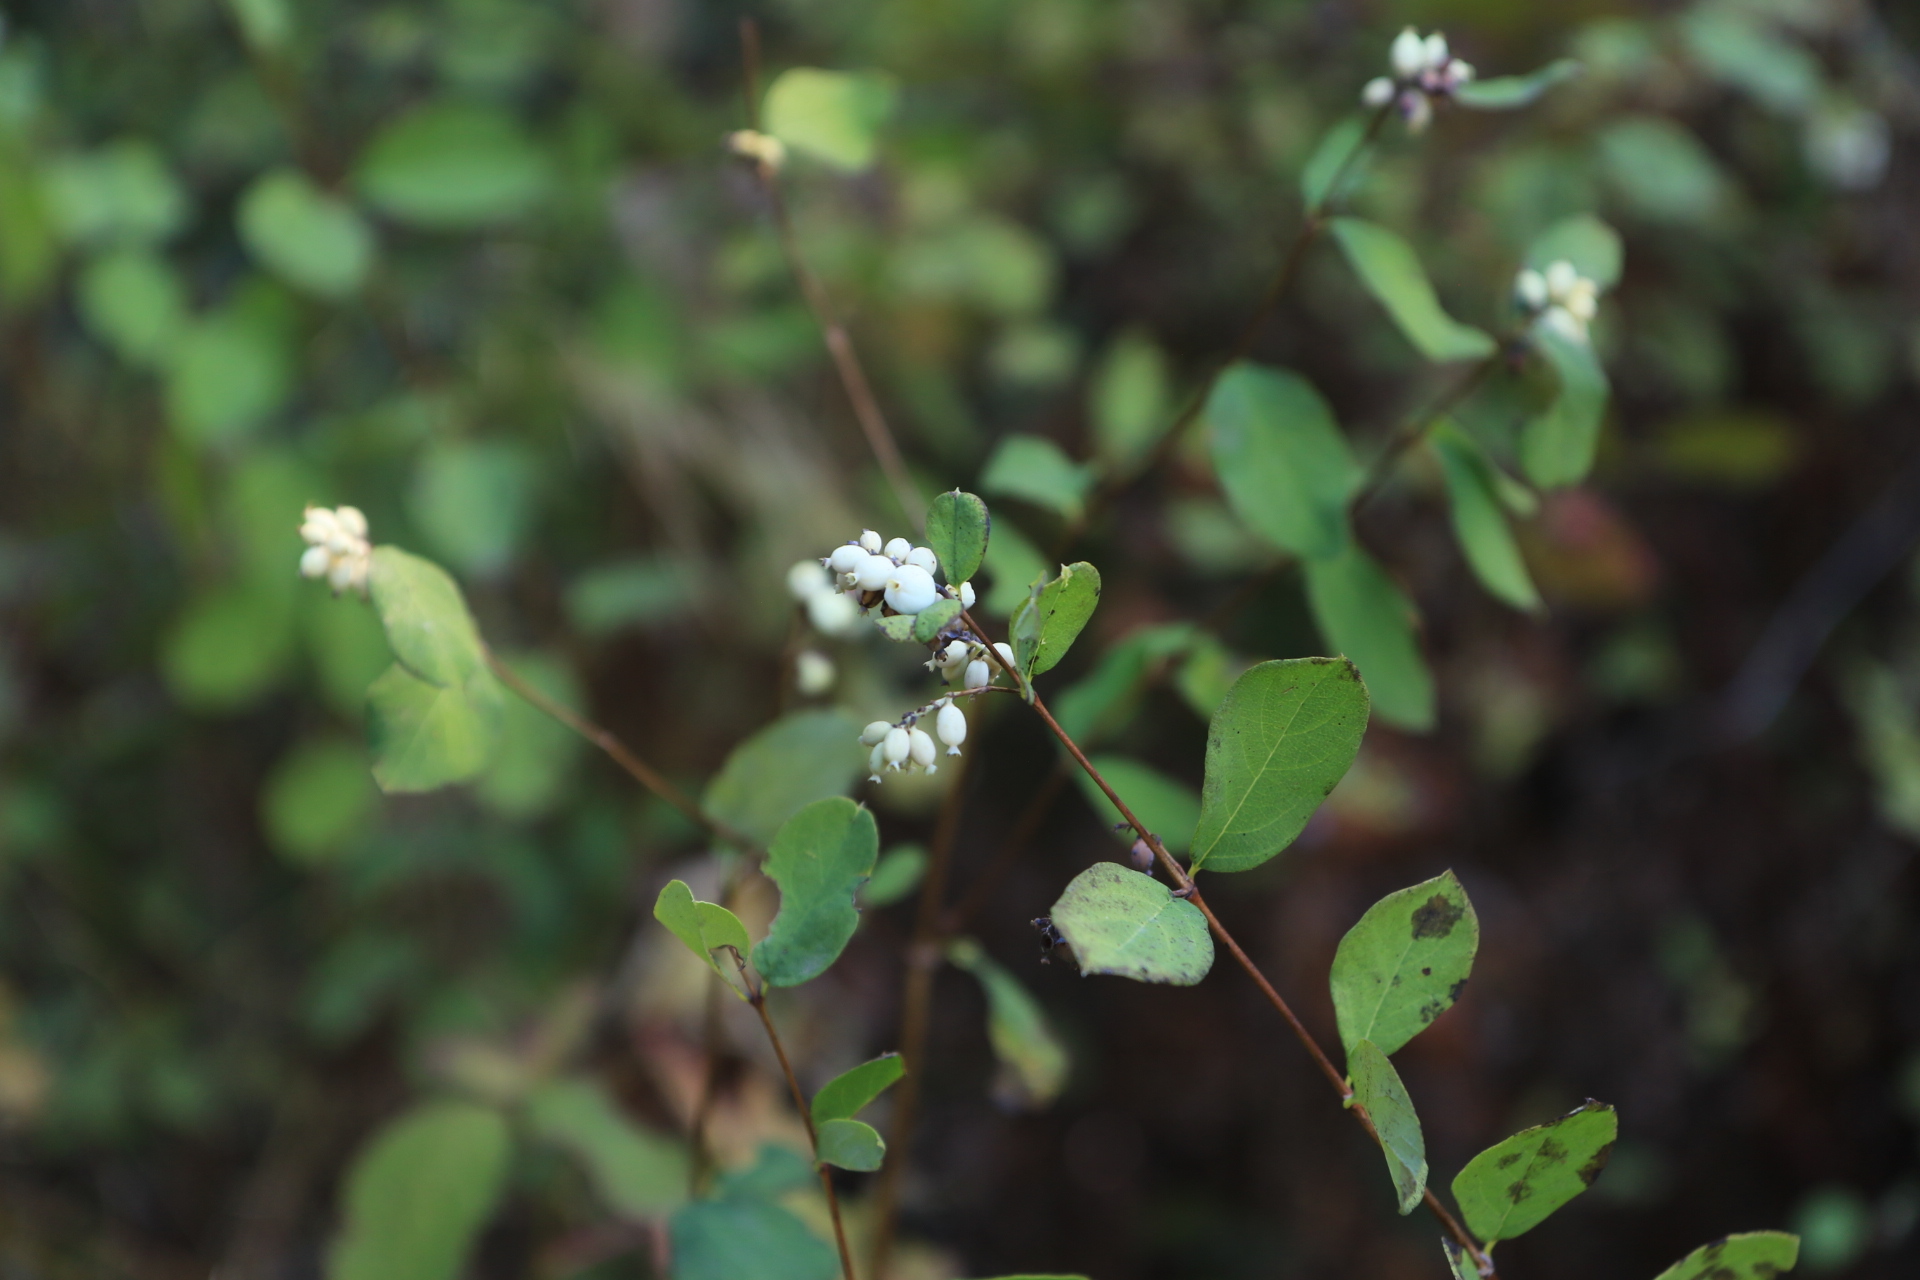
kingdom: Plantae
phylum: Tracheophyta
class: Magnoliopsida
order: Dipsacales
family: Caprifoliaceae
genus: Symphoricarpos
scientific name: Symphoricarpos albus
